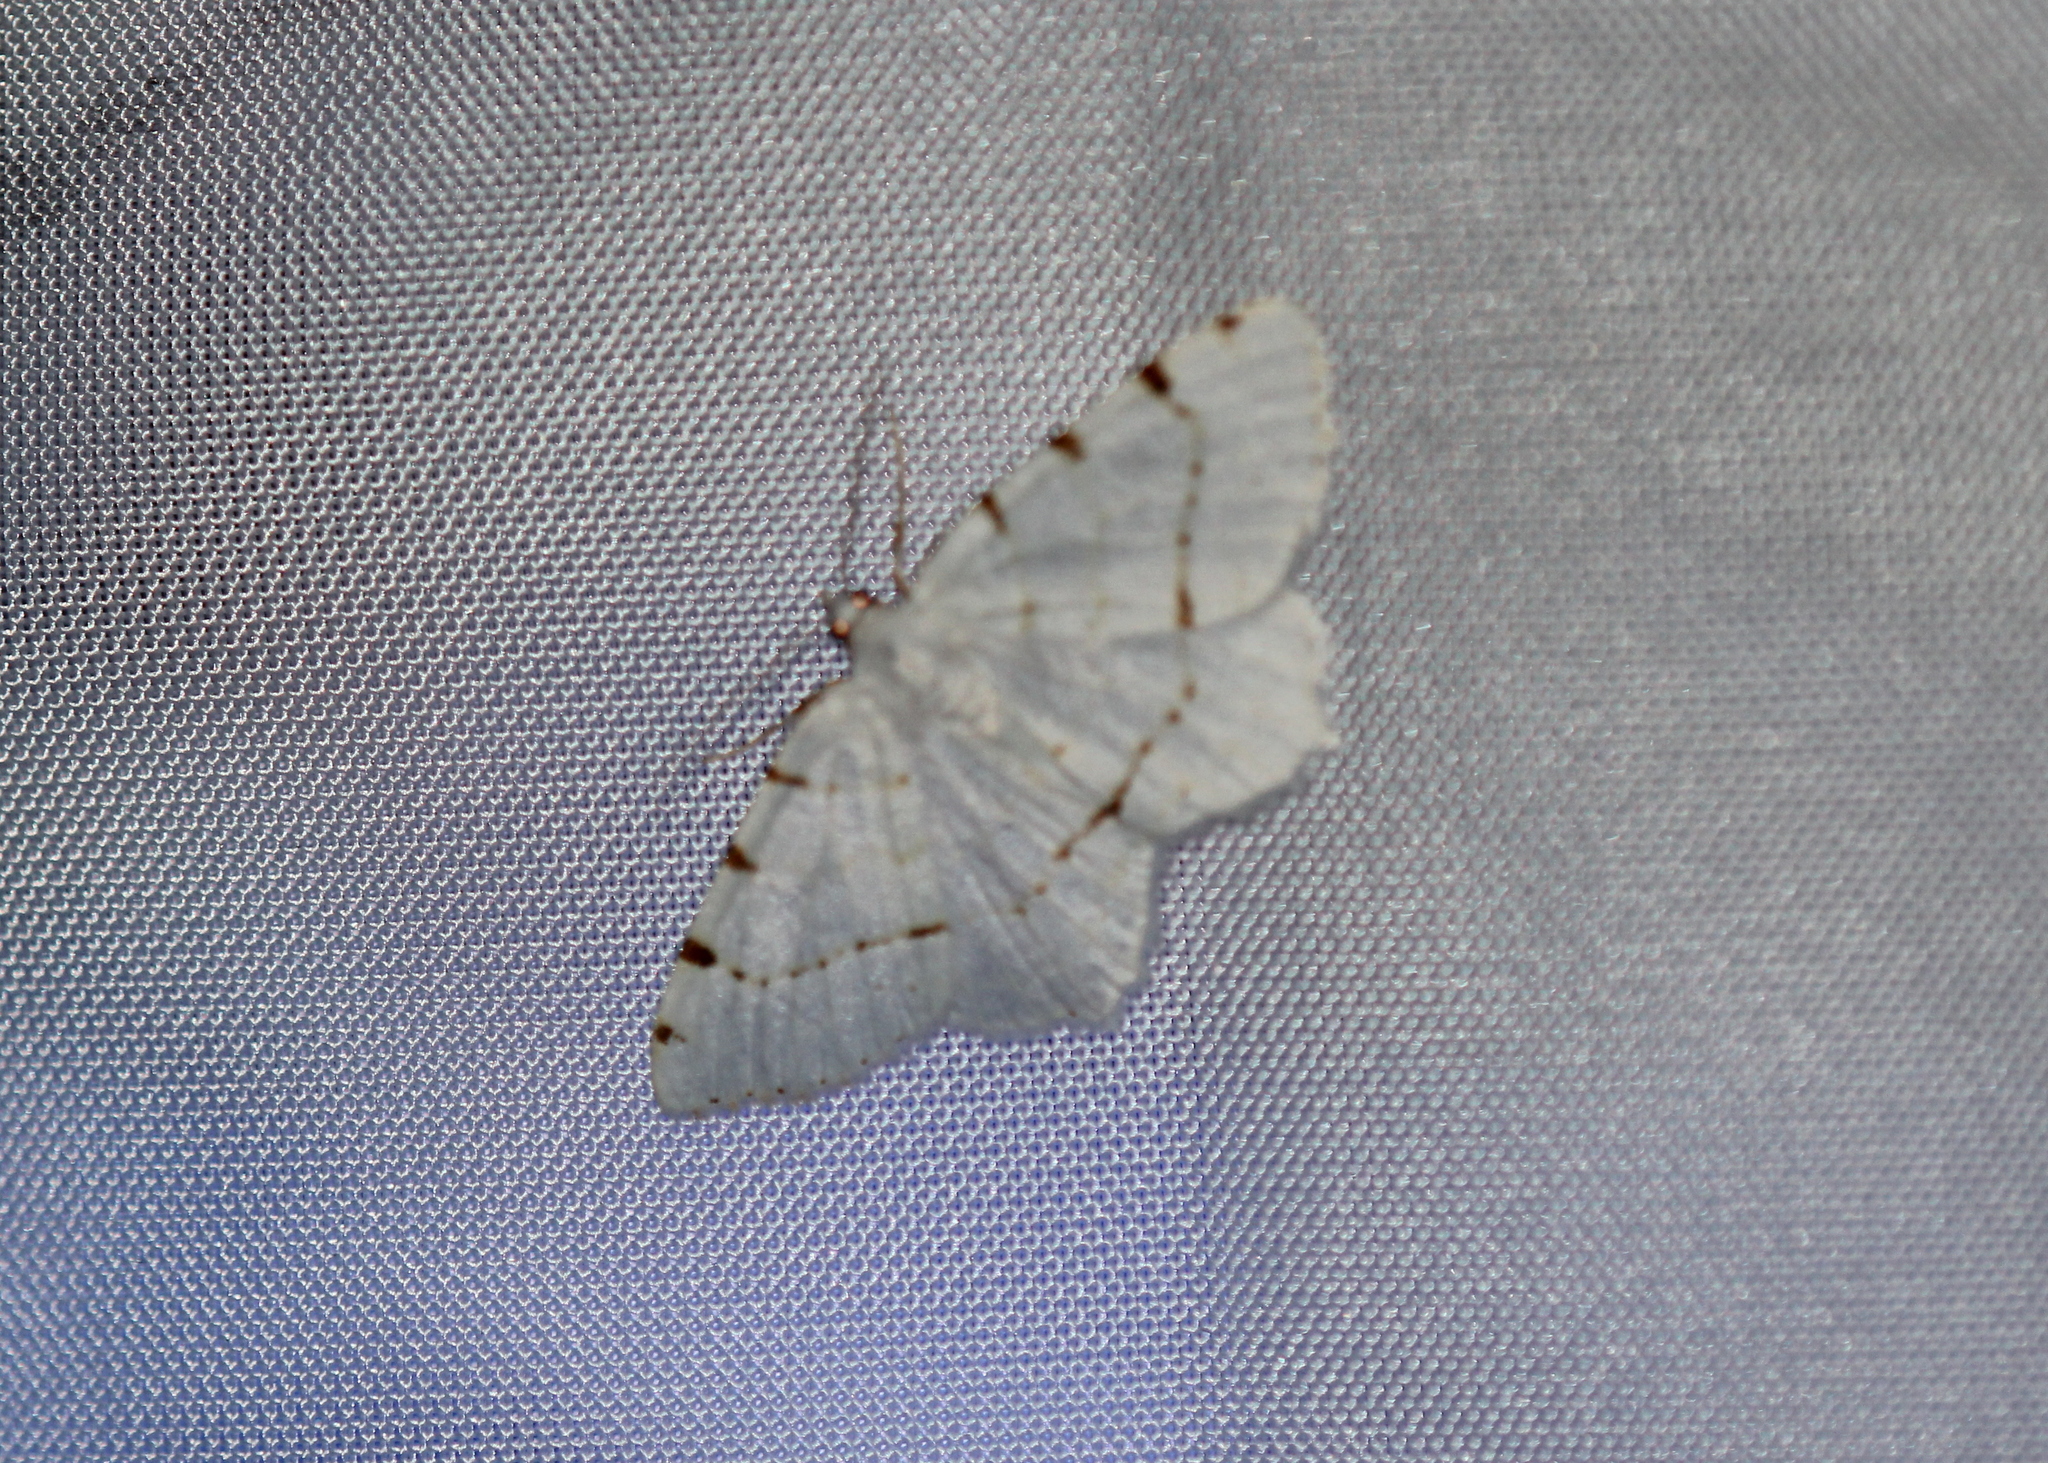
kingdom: Animalia
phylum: Arthropoda
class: Insecta
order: Lepidoptera
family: Geometridae
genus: Macaria
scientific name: Macaria pustularia
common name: Lesser maple spanworm moth
